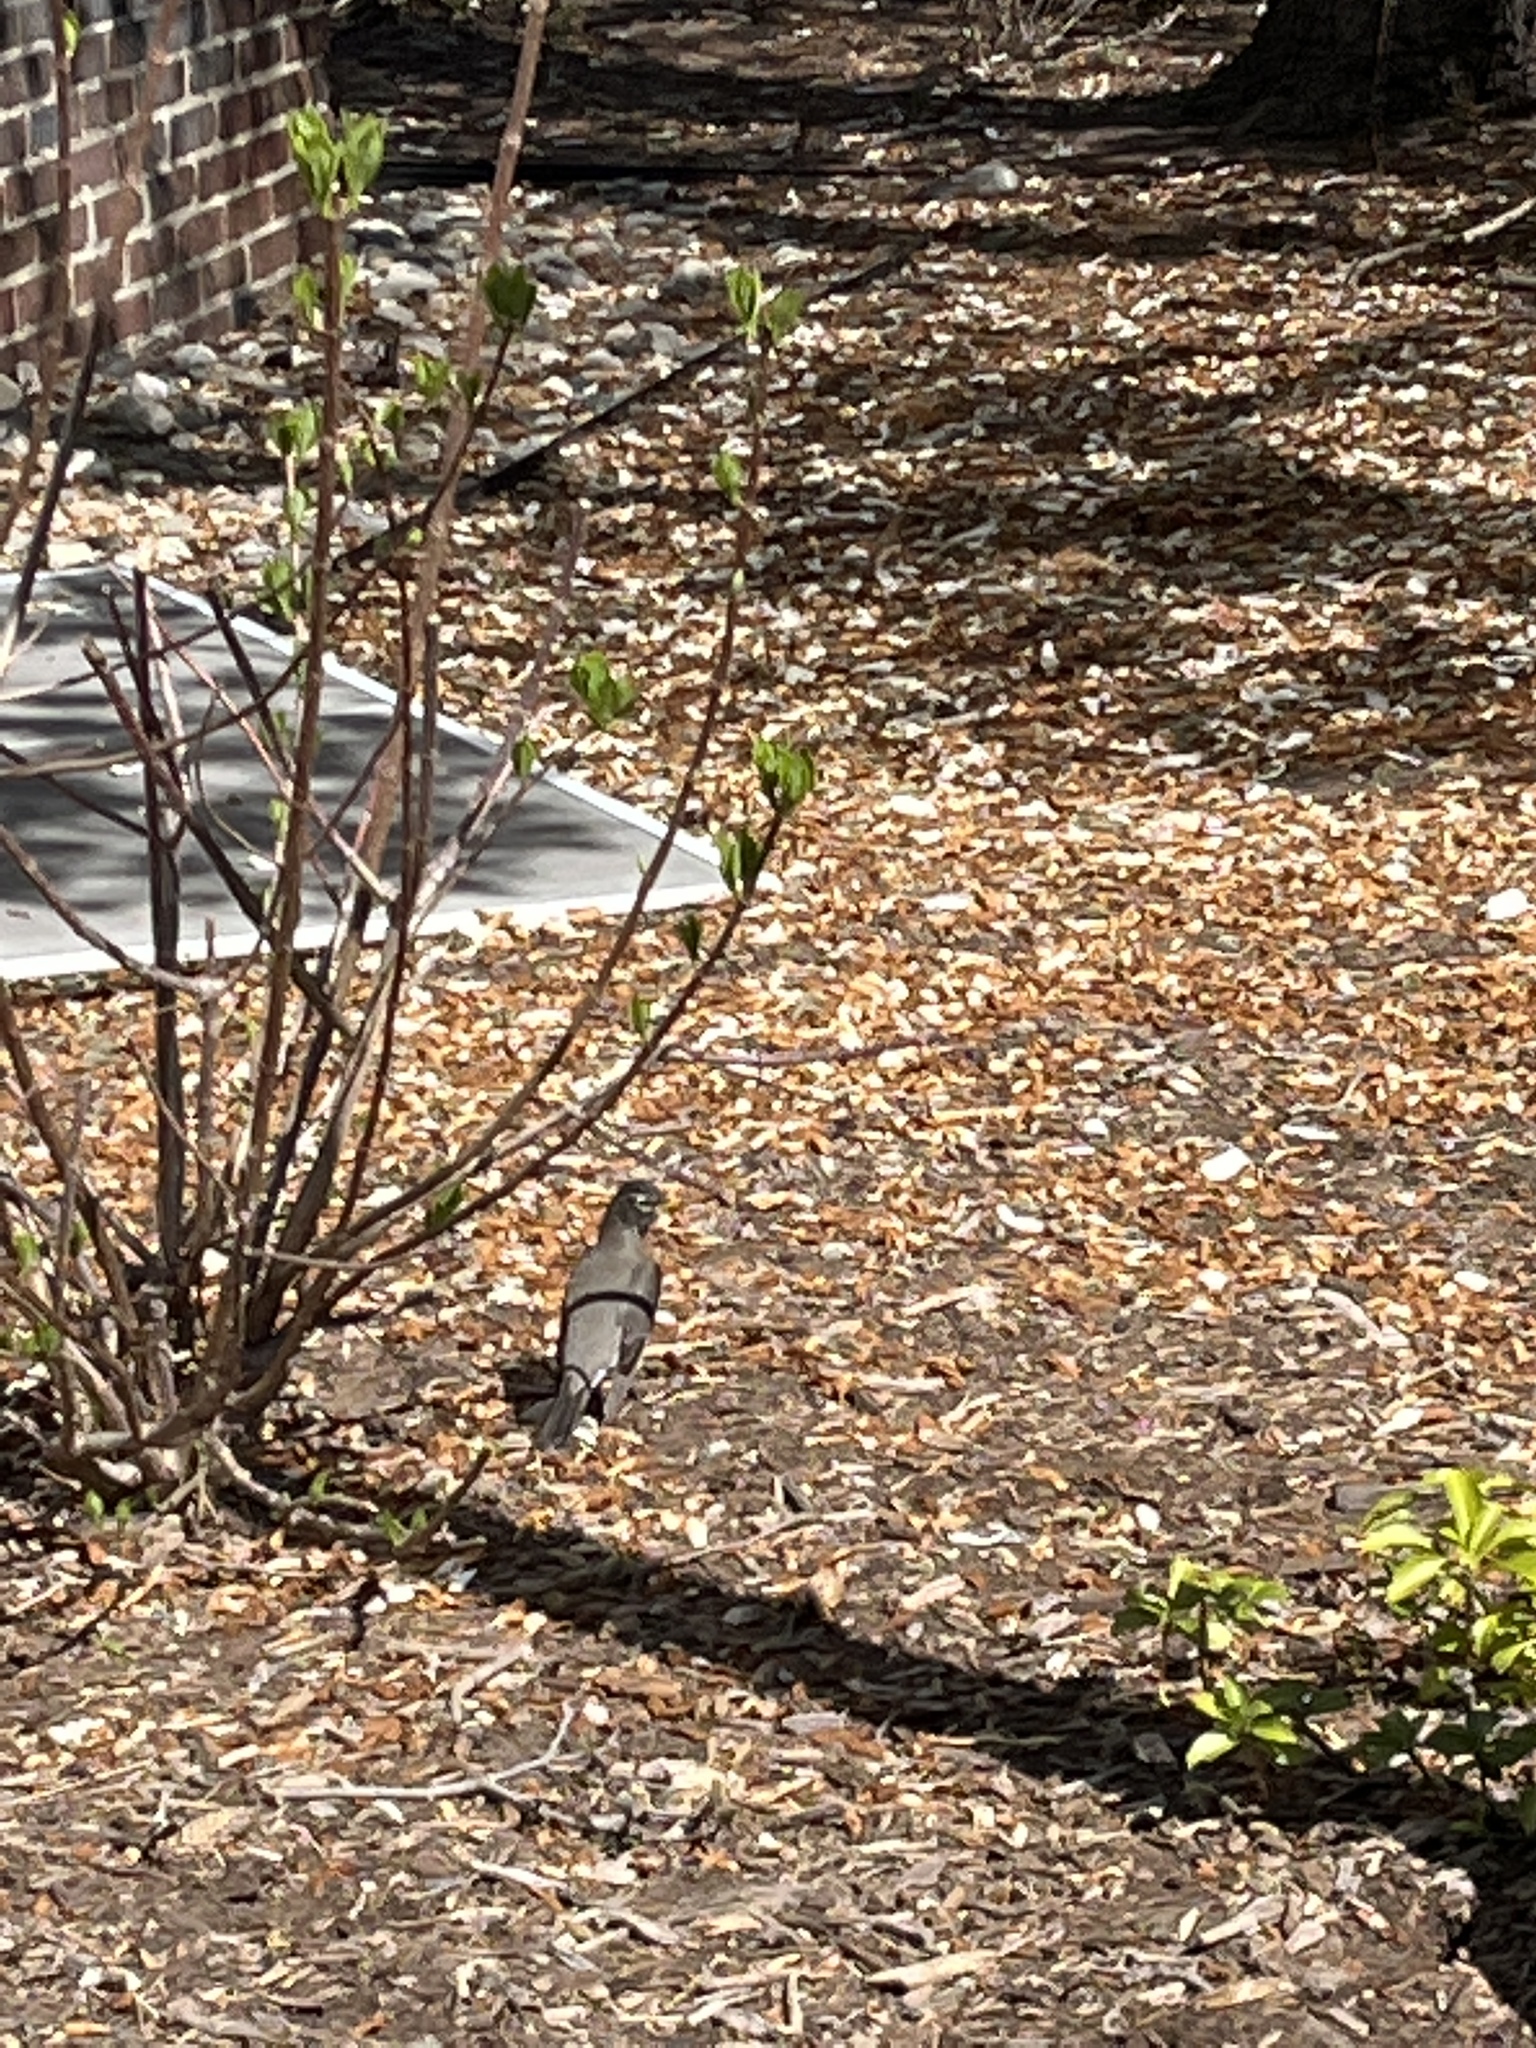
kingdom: Animalia
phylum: Chordata
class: Aves
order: Passeriformes
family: Turdidae
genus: Turdus
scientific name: Turdus migratorius
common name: American robin
